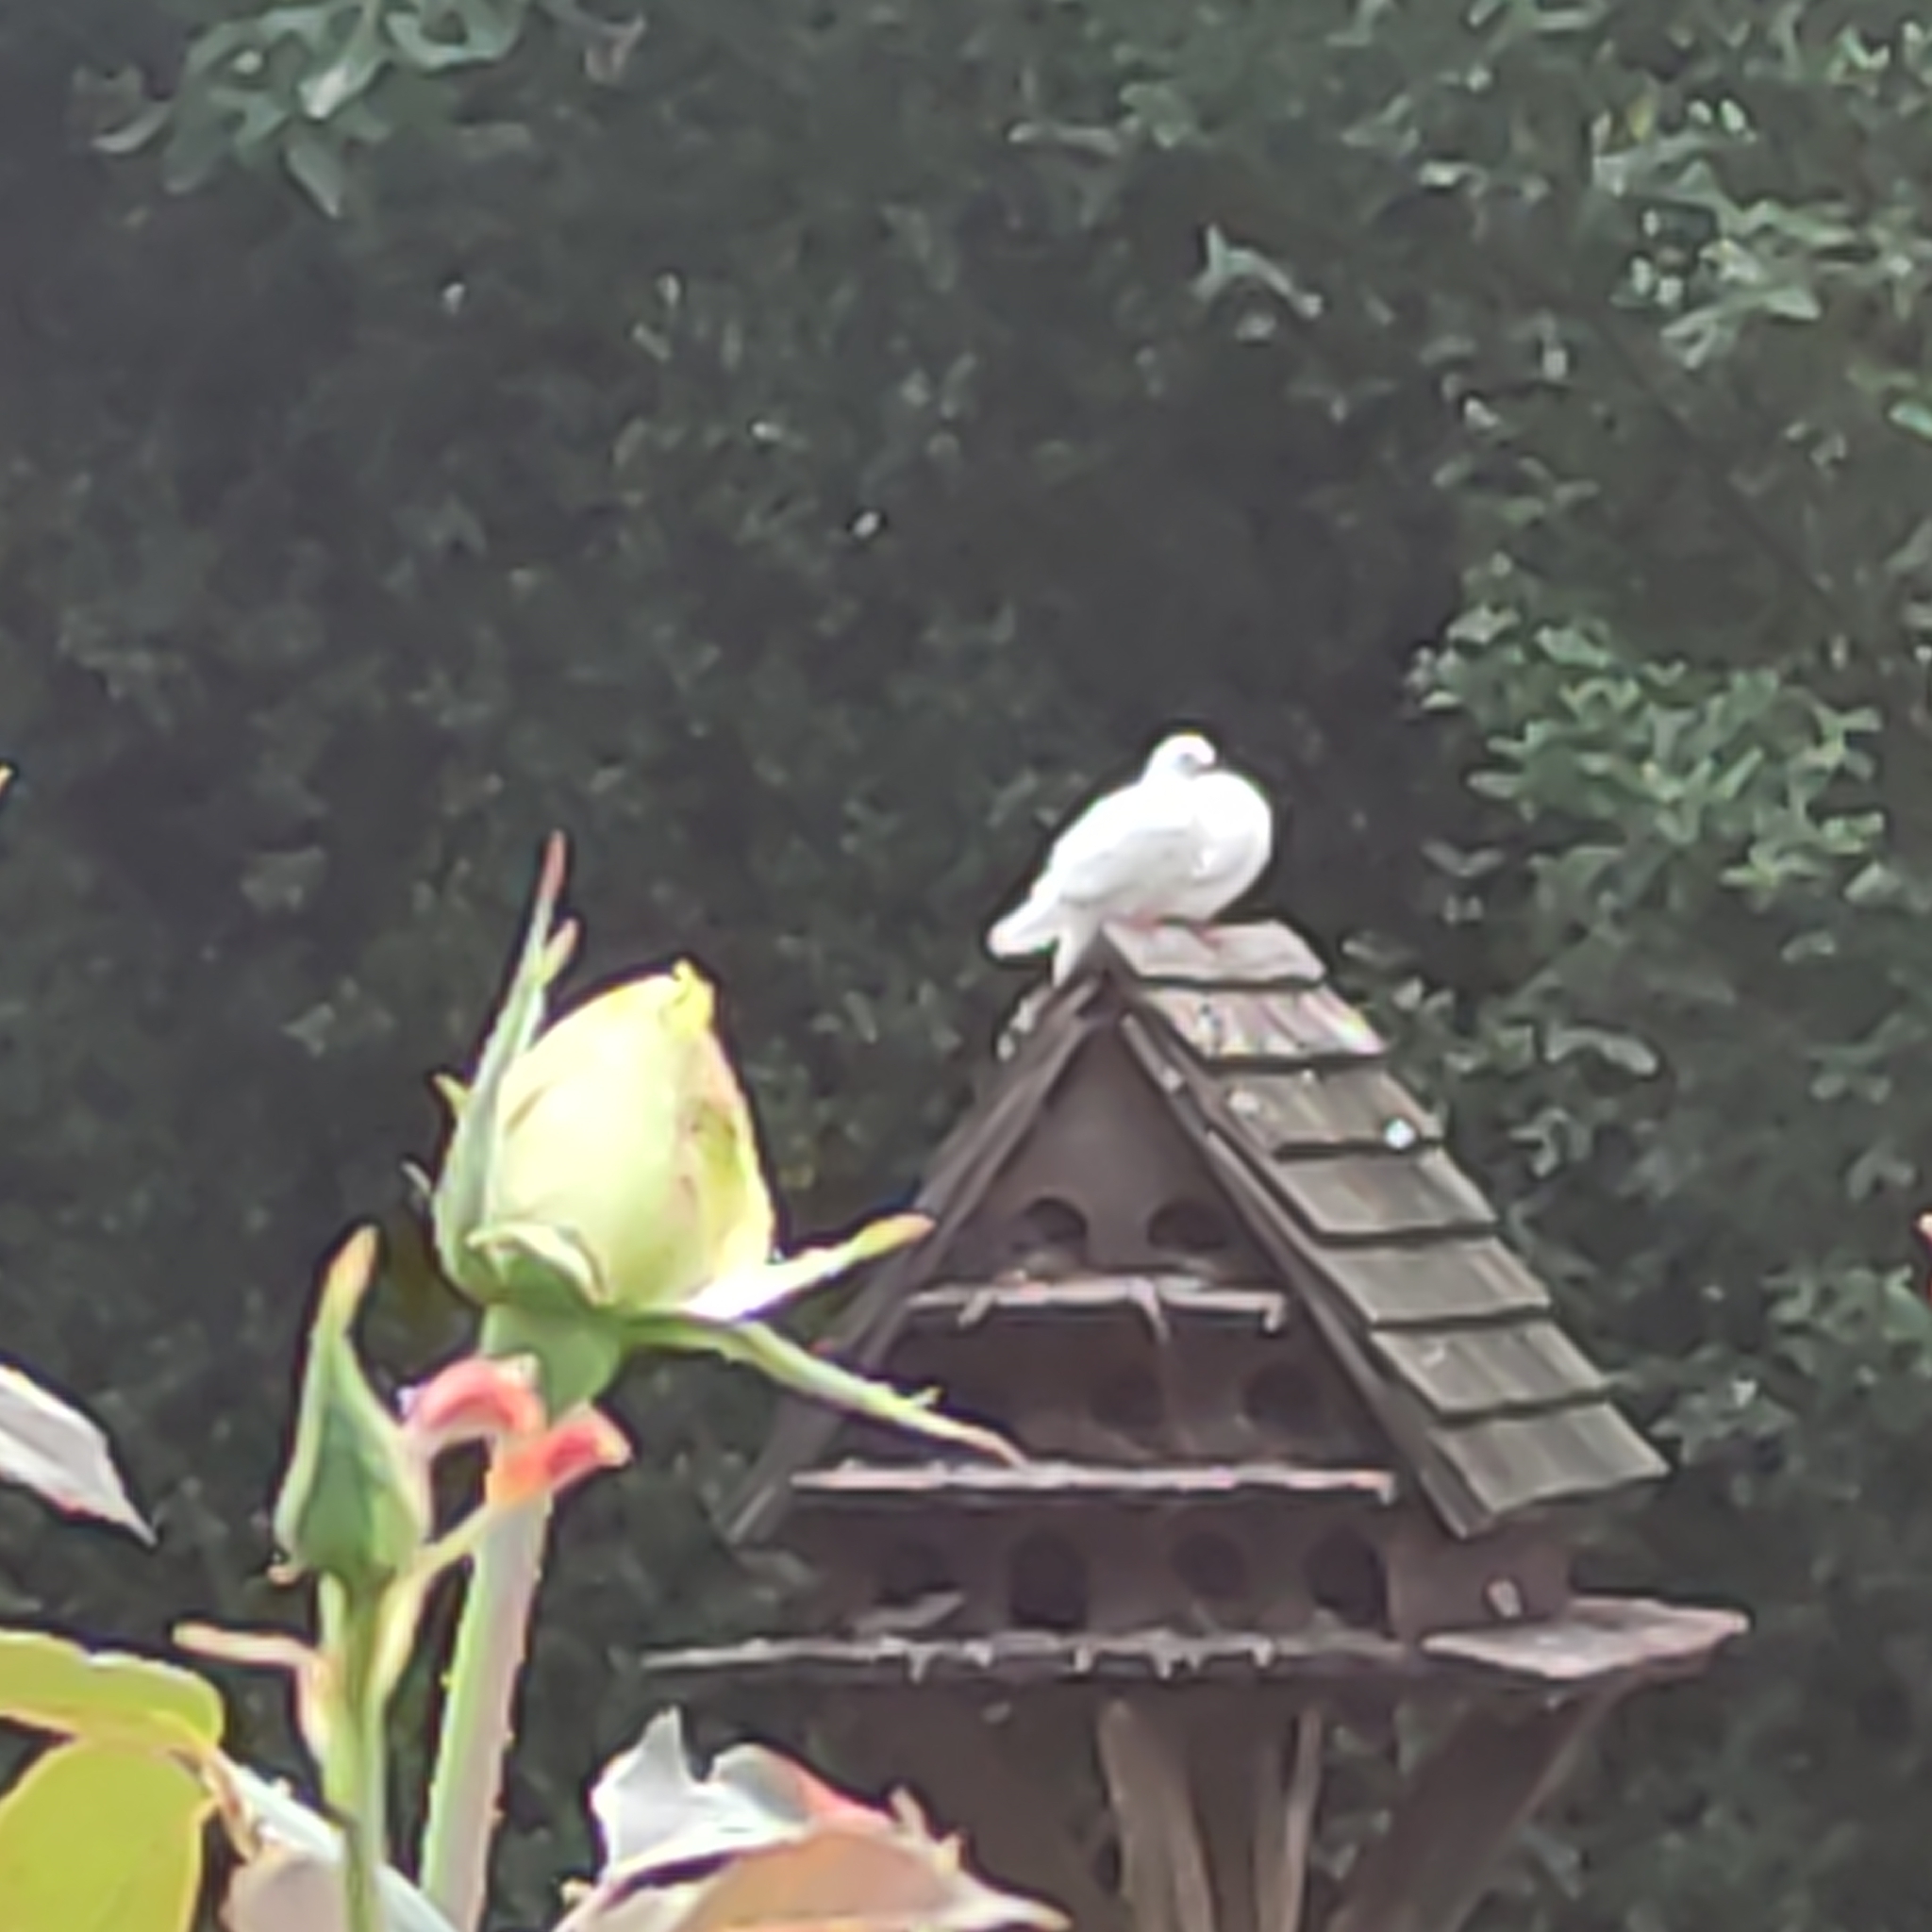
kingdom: Animalia
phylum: Chordata
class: Aves
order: Columbiformes
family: Columbidae
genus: Columba
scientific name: Columba livia
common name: Rock pigeon
